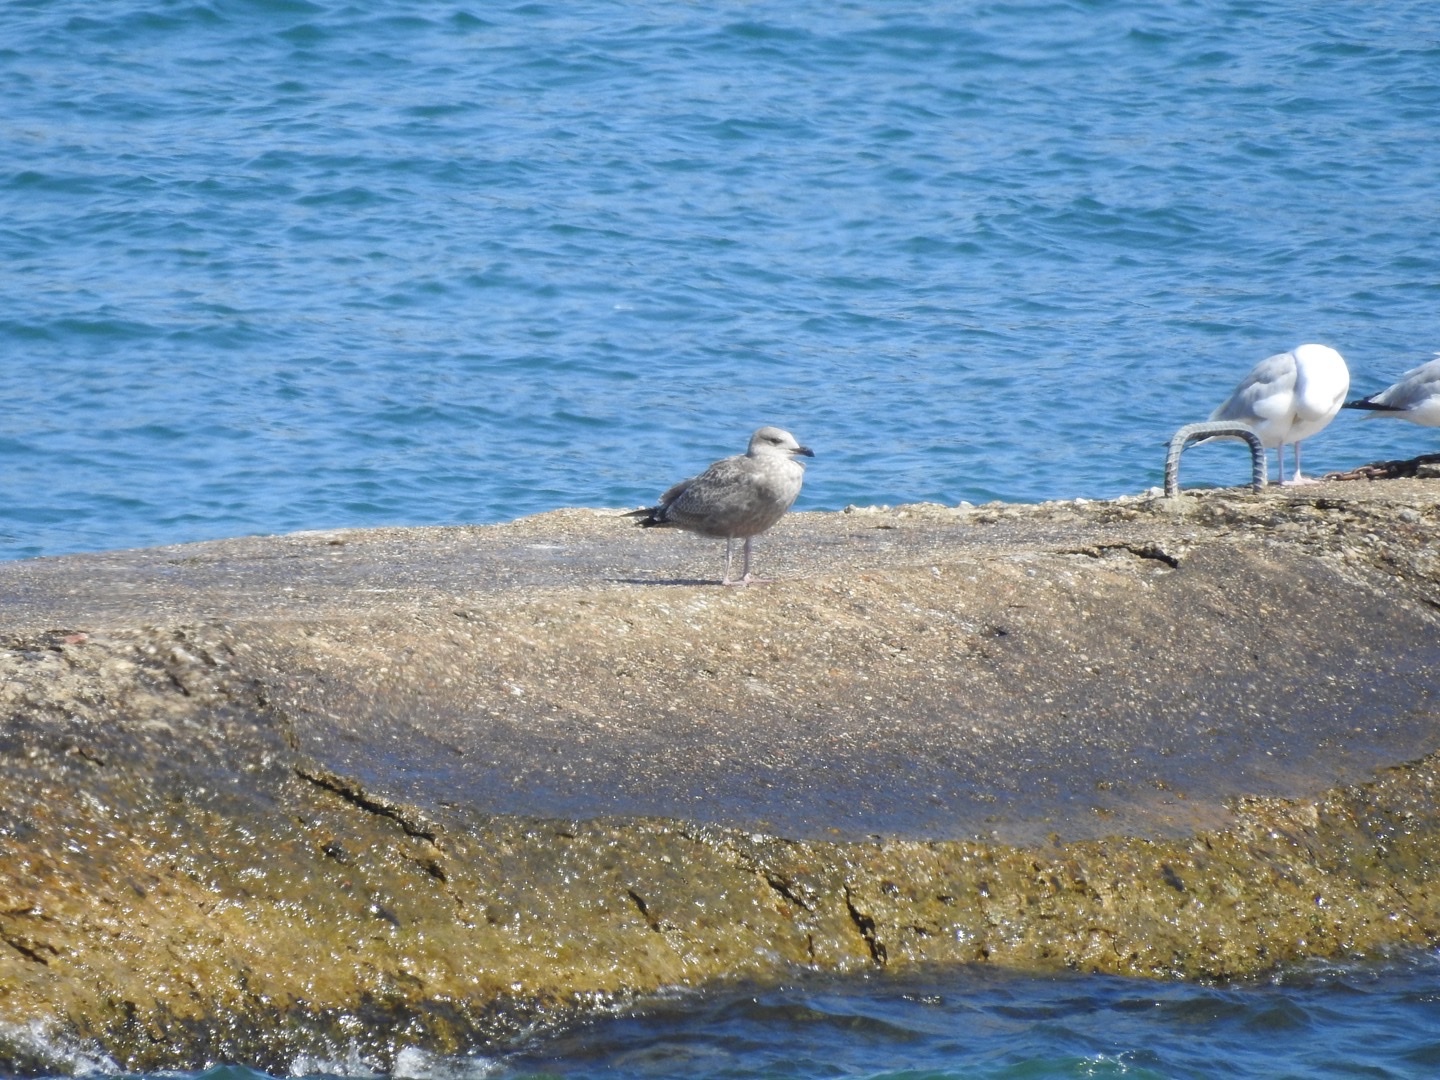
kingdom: Animalia
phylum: Chordata
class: Aves
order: Charadriiformes
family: Laridae
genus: Larus
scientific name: Larus argentatus
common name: Herring gull
